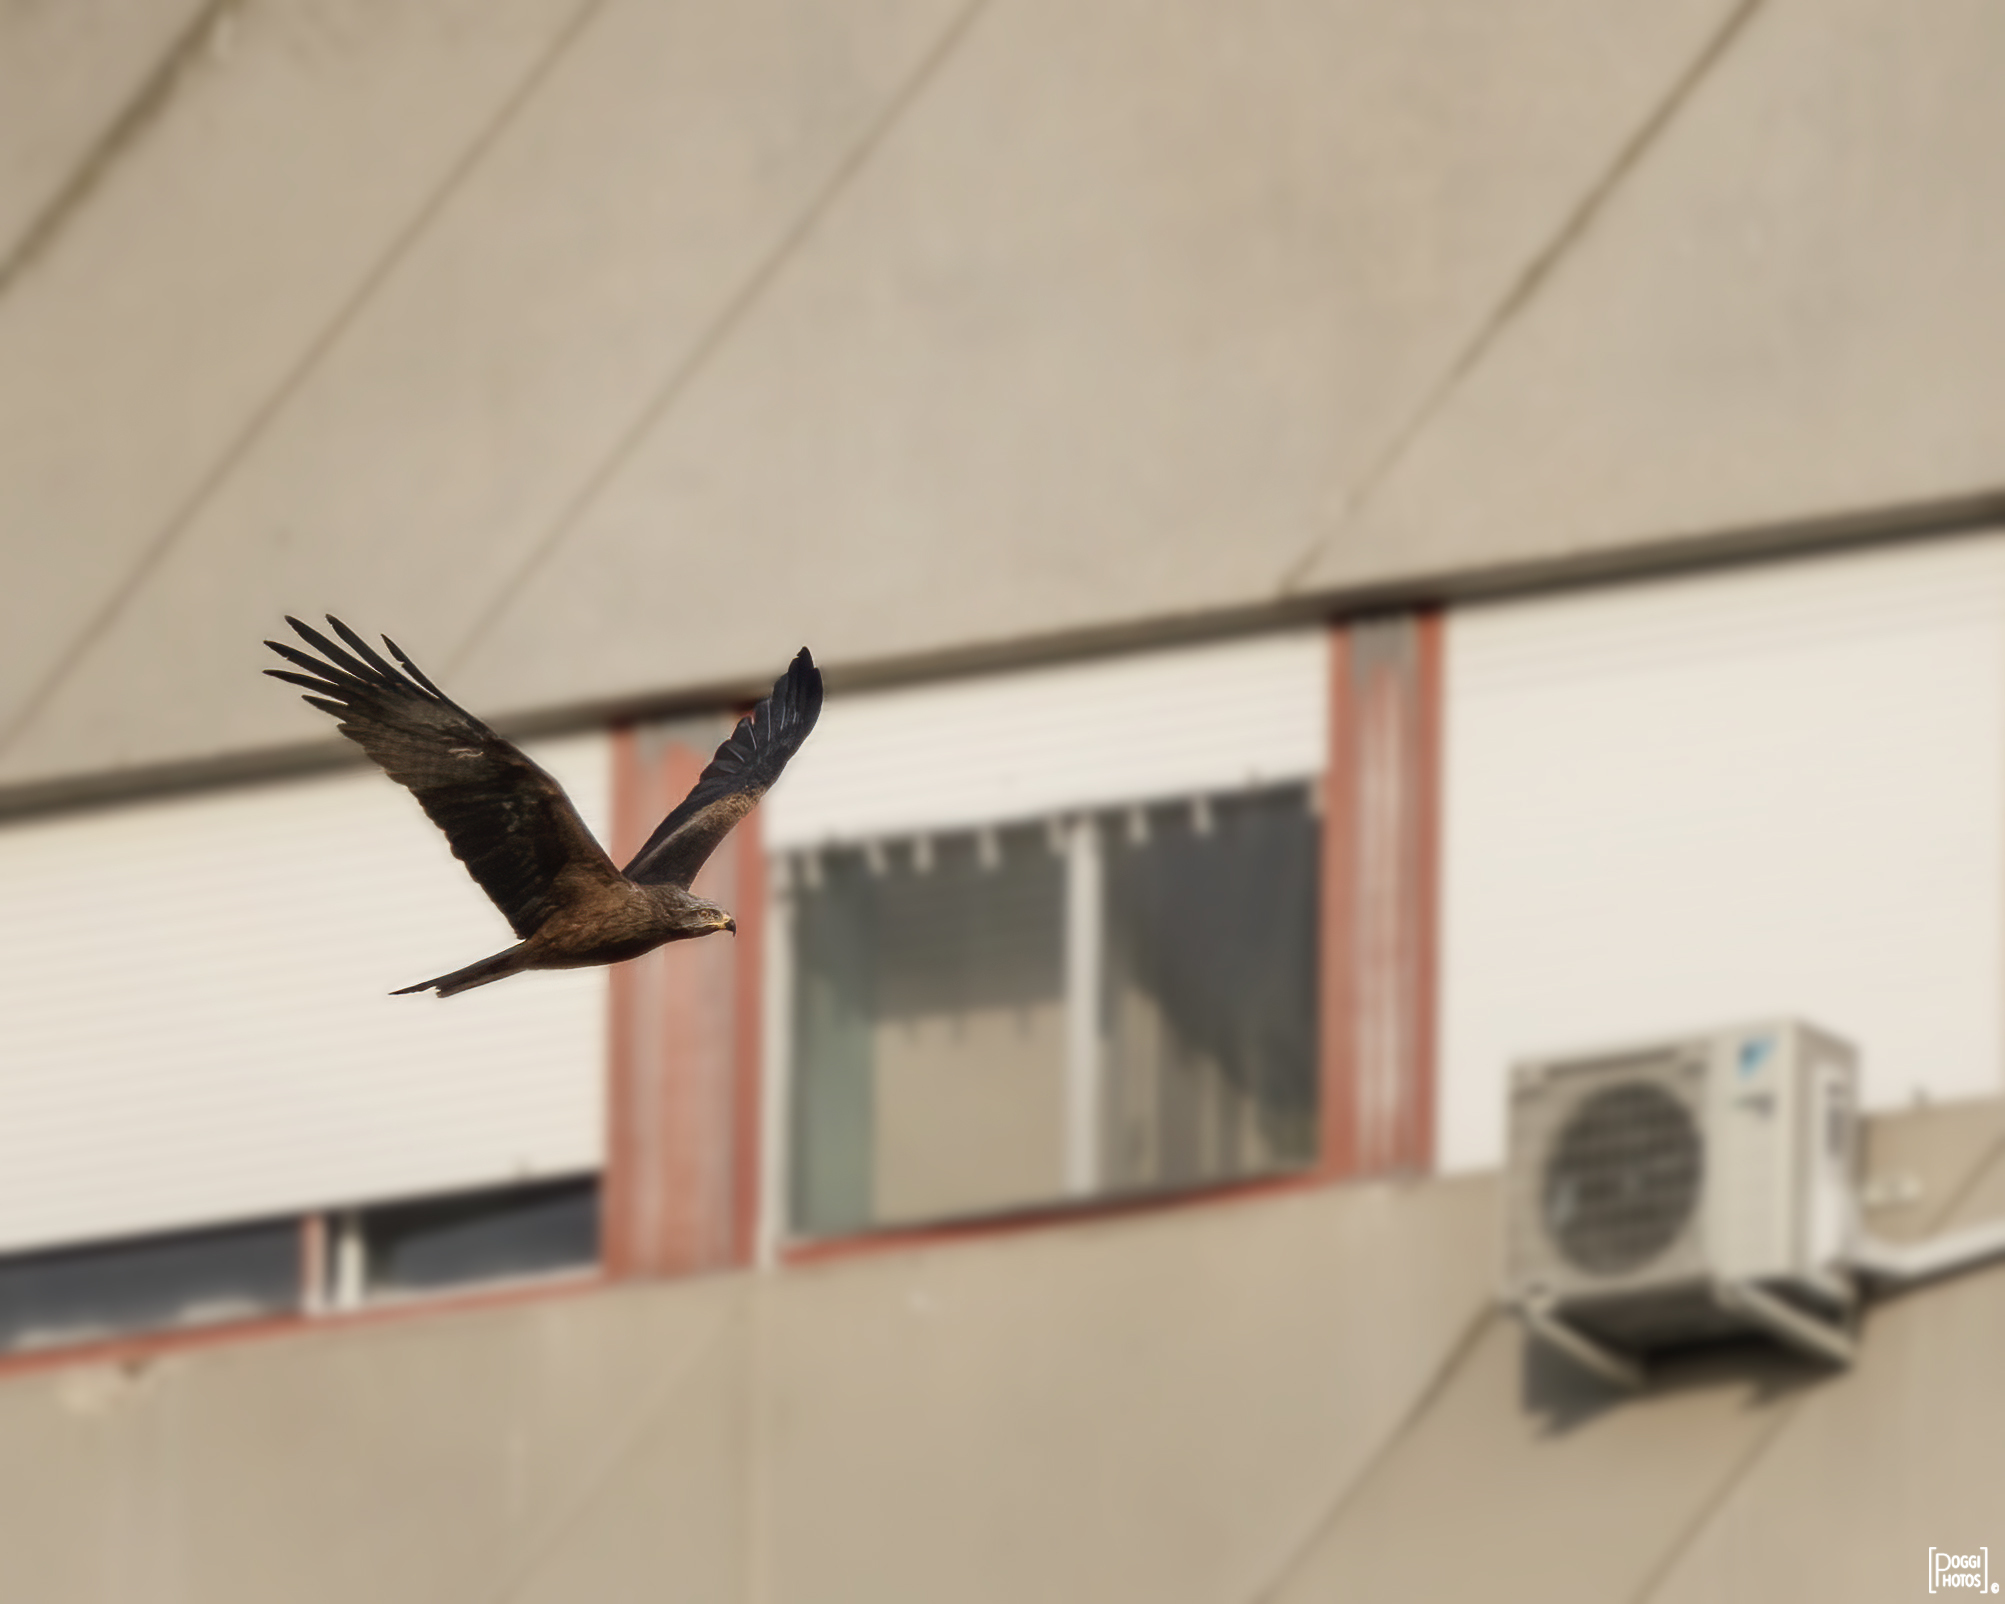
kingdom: Animalia
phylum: Chordata
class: Aves
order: Accipitriformes
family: Accipitridae
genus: Milvus
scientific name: Milvus migrans
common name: Black kite
